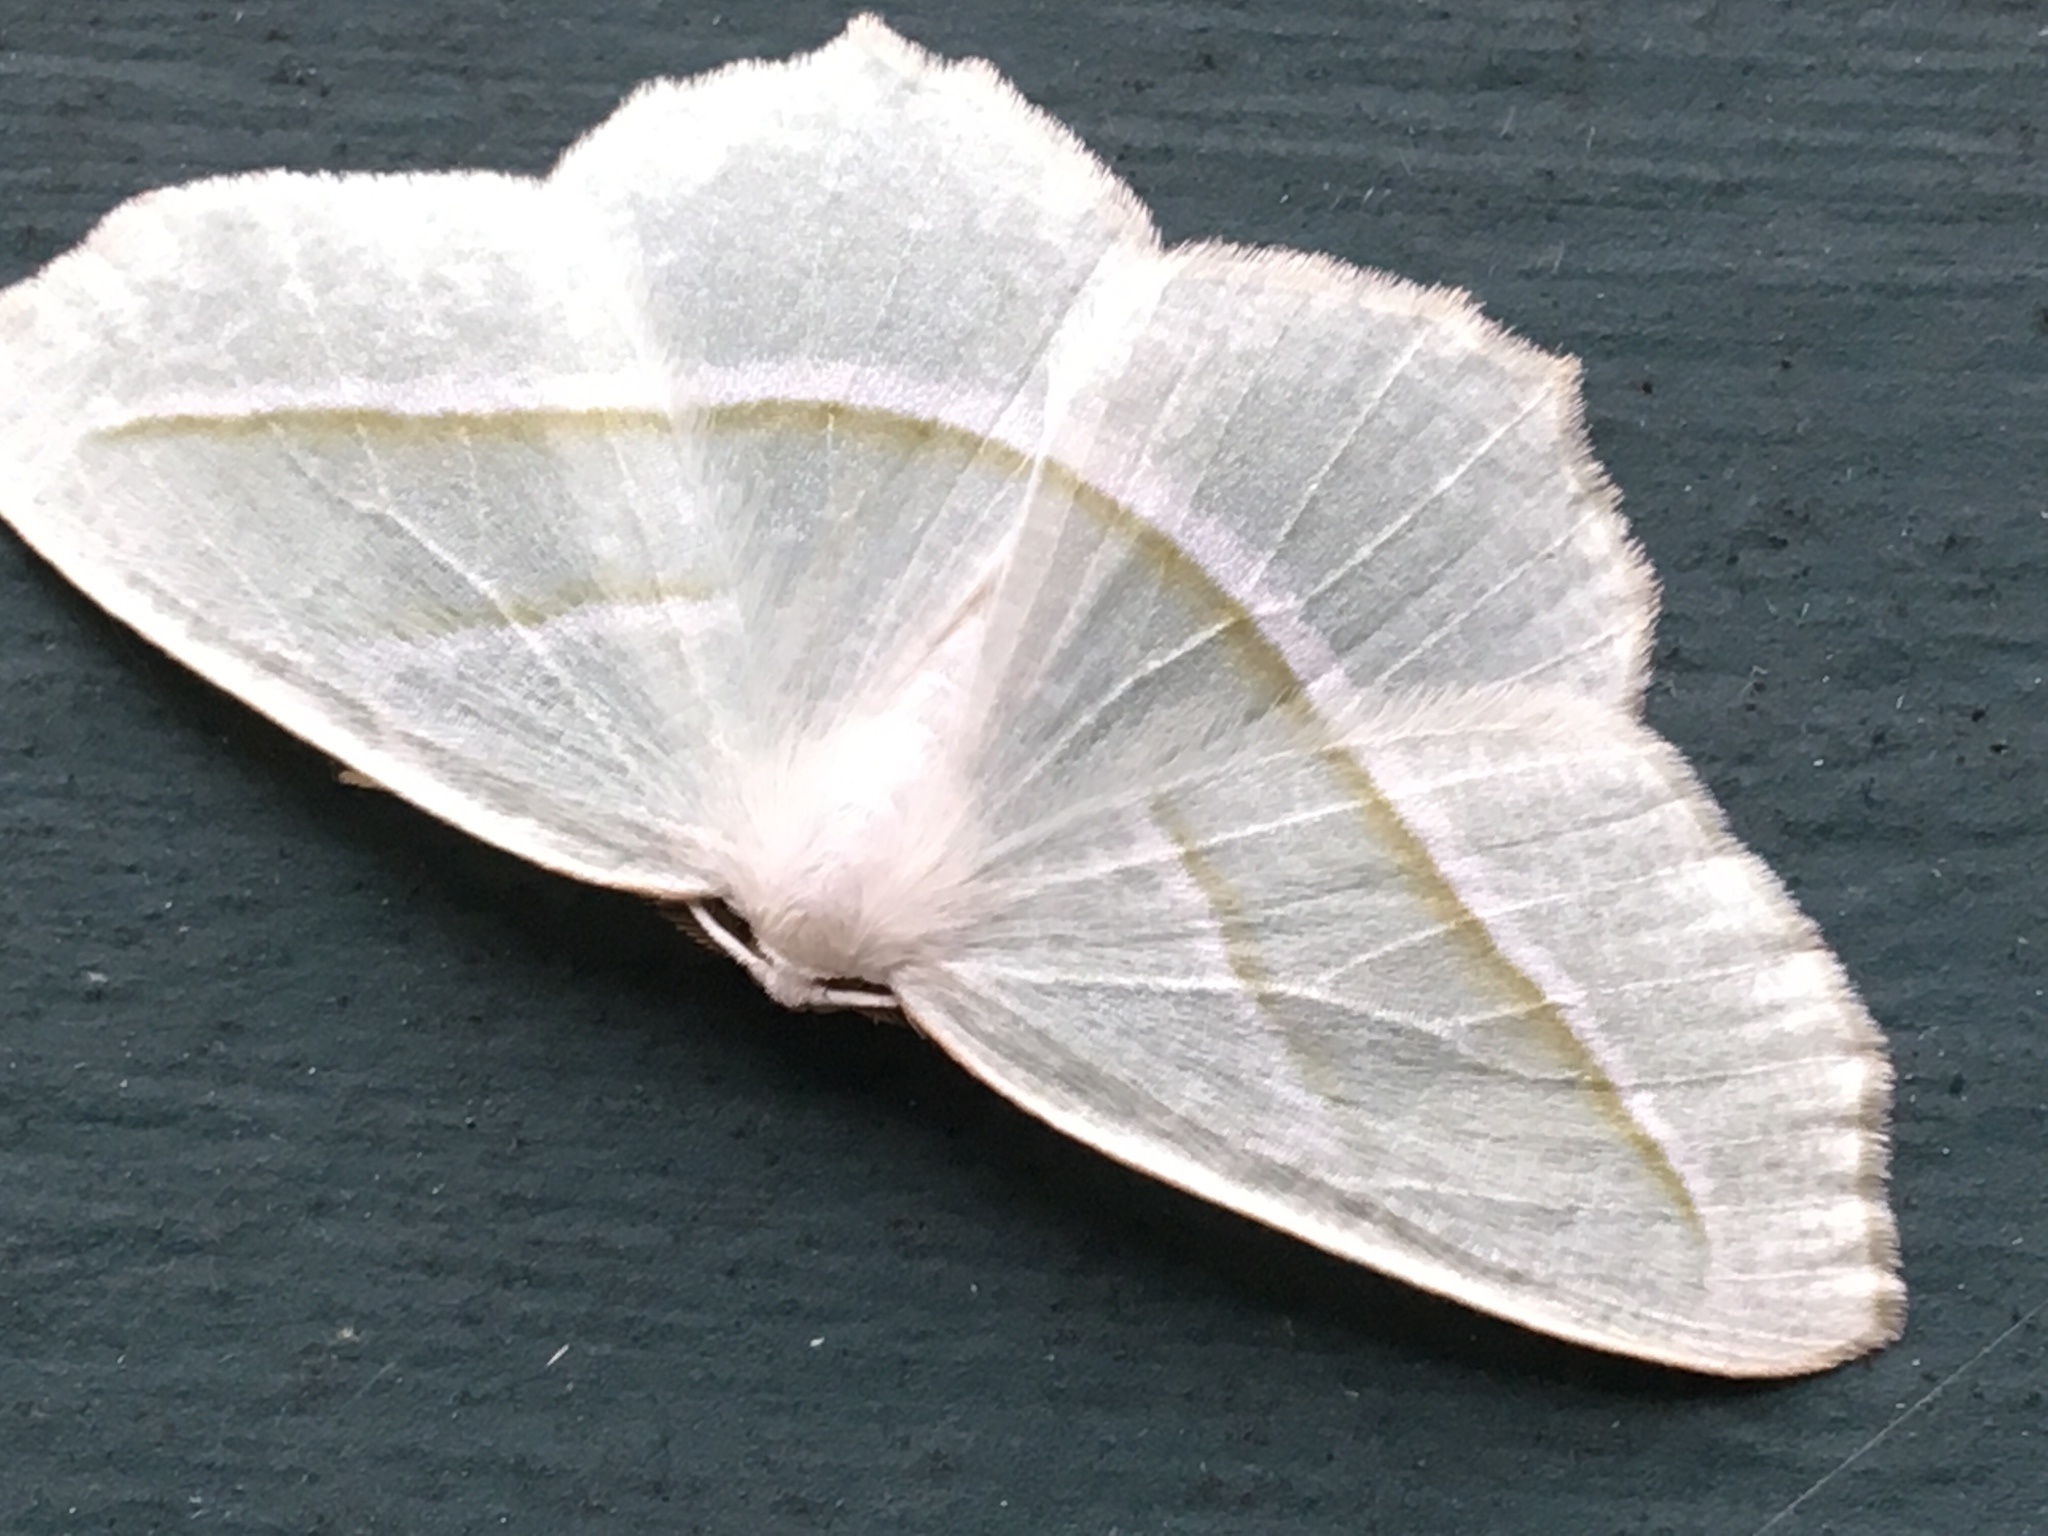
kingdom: Animalia
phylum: Arthropoda
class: Insecta
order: Lepidoptera
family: Geometridae
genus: Campaea
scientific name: Campaea perlata
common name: Fringed looper
